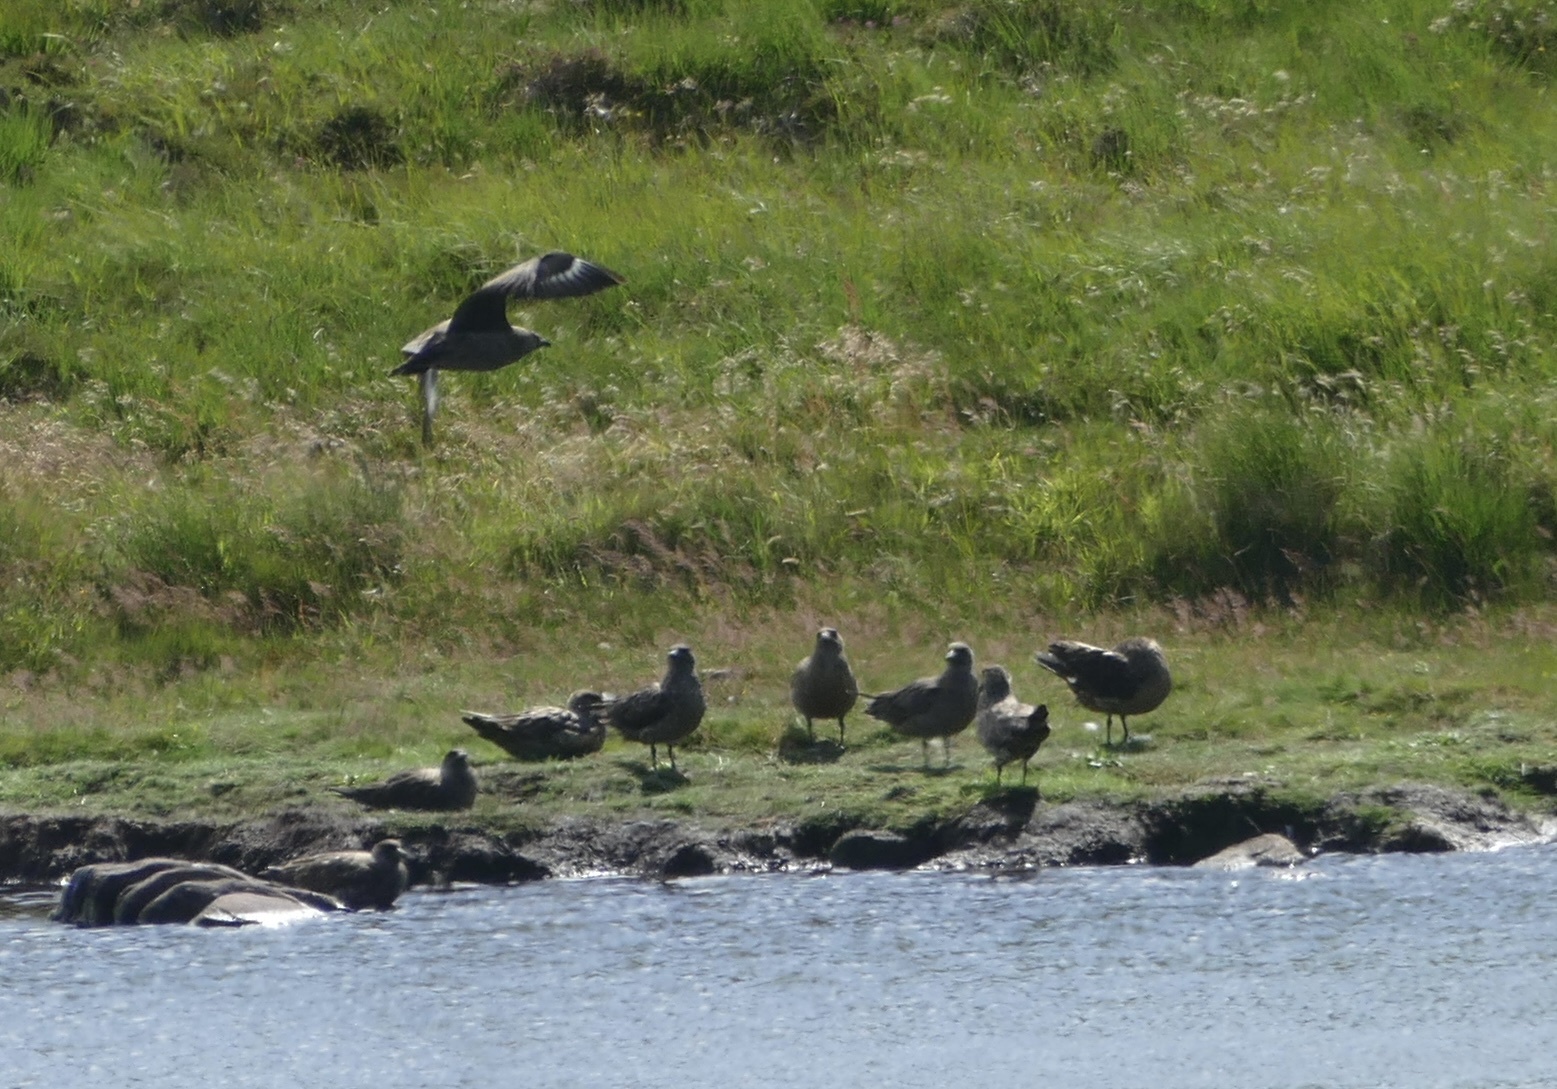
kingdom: Animalia
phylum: Chordata
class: Aves
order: Charadriiformes
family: Stercorariidae
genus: Stercorarius
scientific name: Stercorarius skua
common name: Great skua
